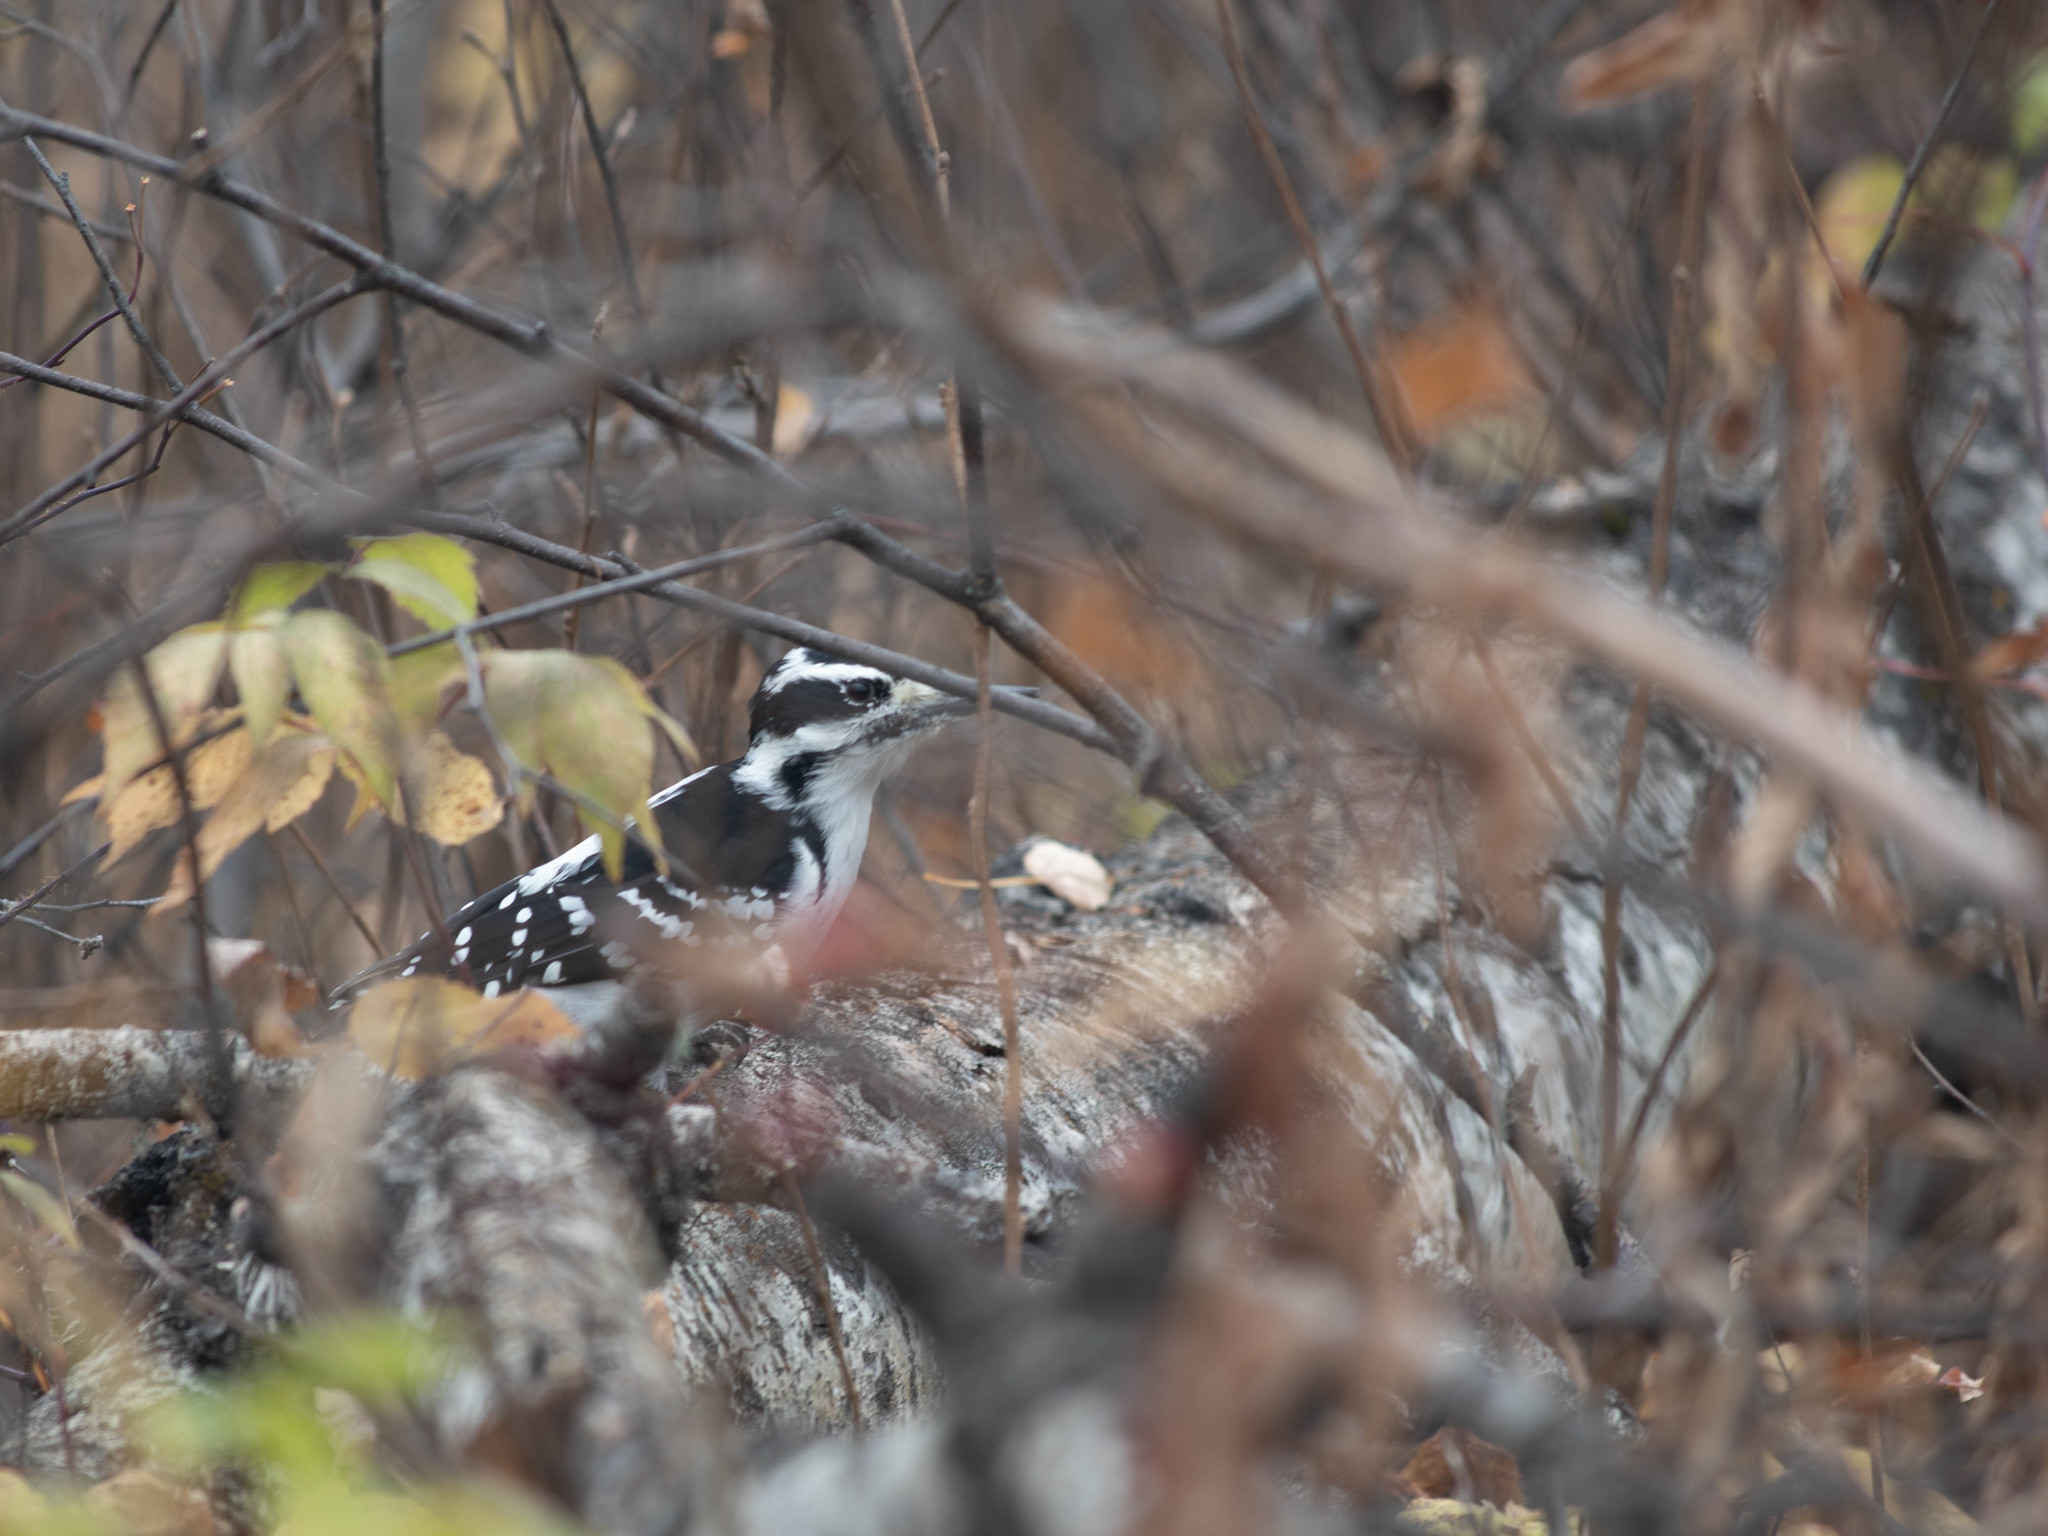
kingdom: Animalia
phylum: Chordata
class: Aves
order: Piciformes
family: Picidae
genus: Leuconotopicus
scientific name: Leuconotopicus villosus
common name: Hairy woodpecker
